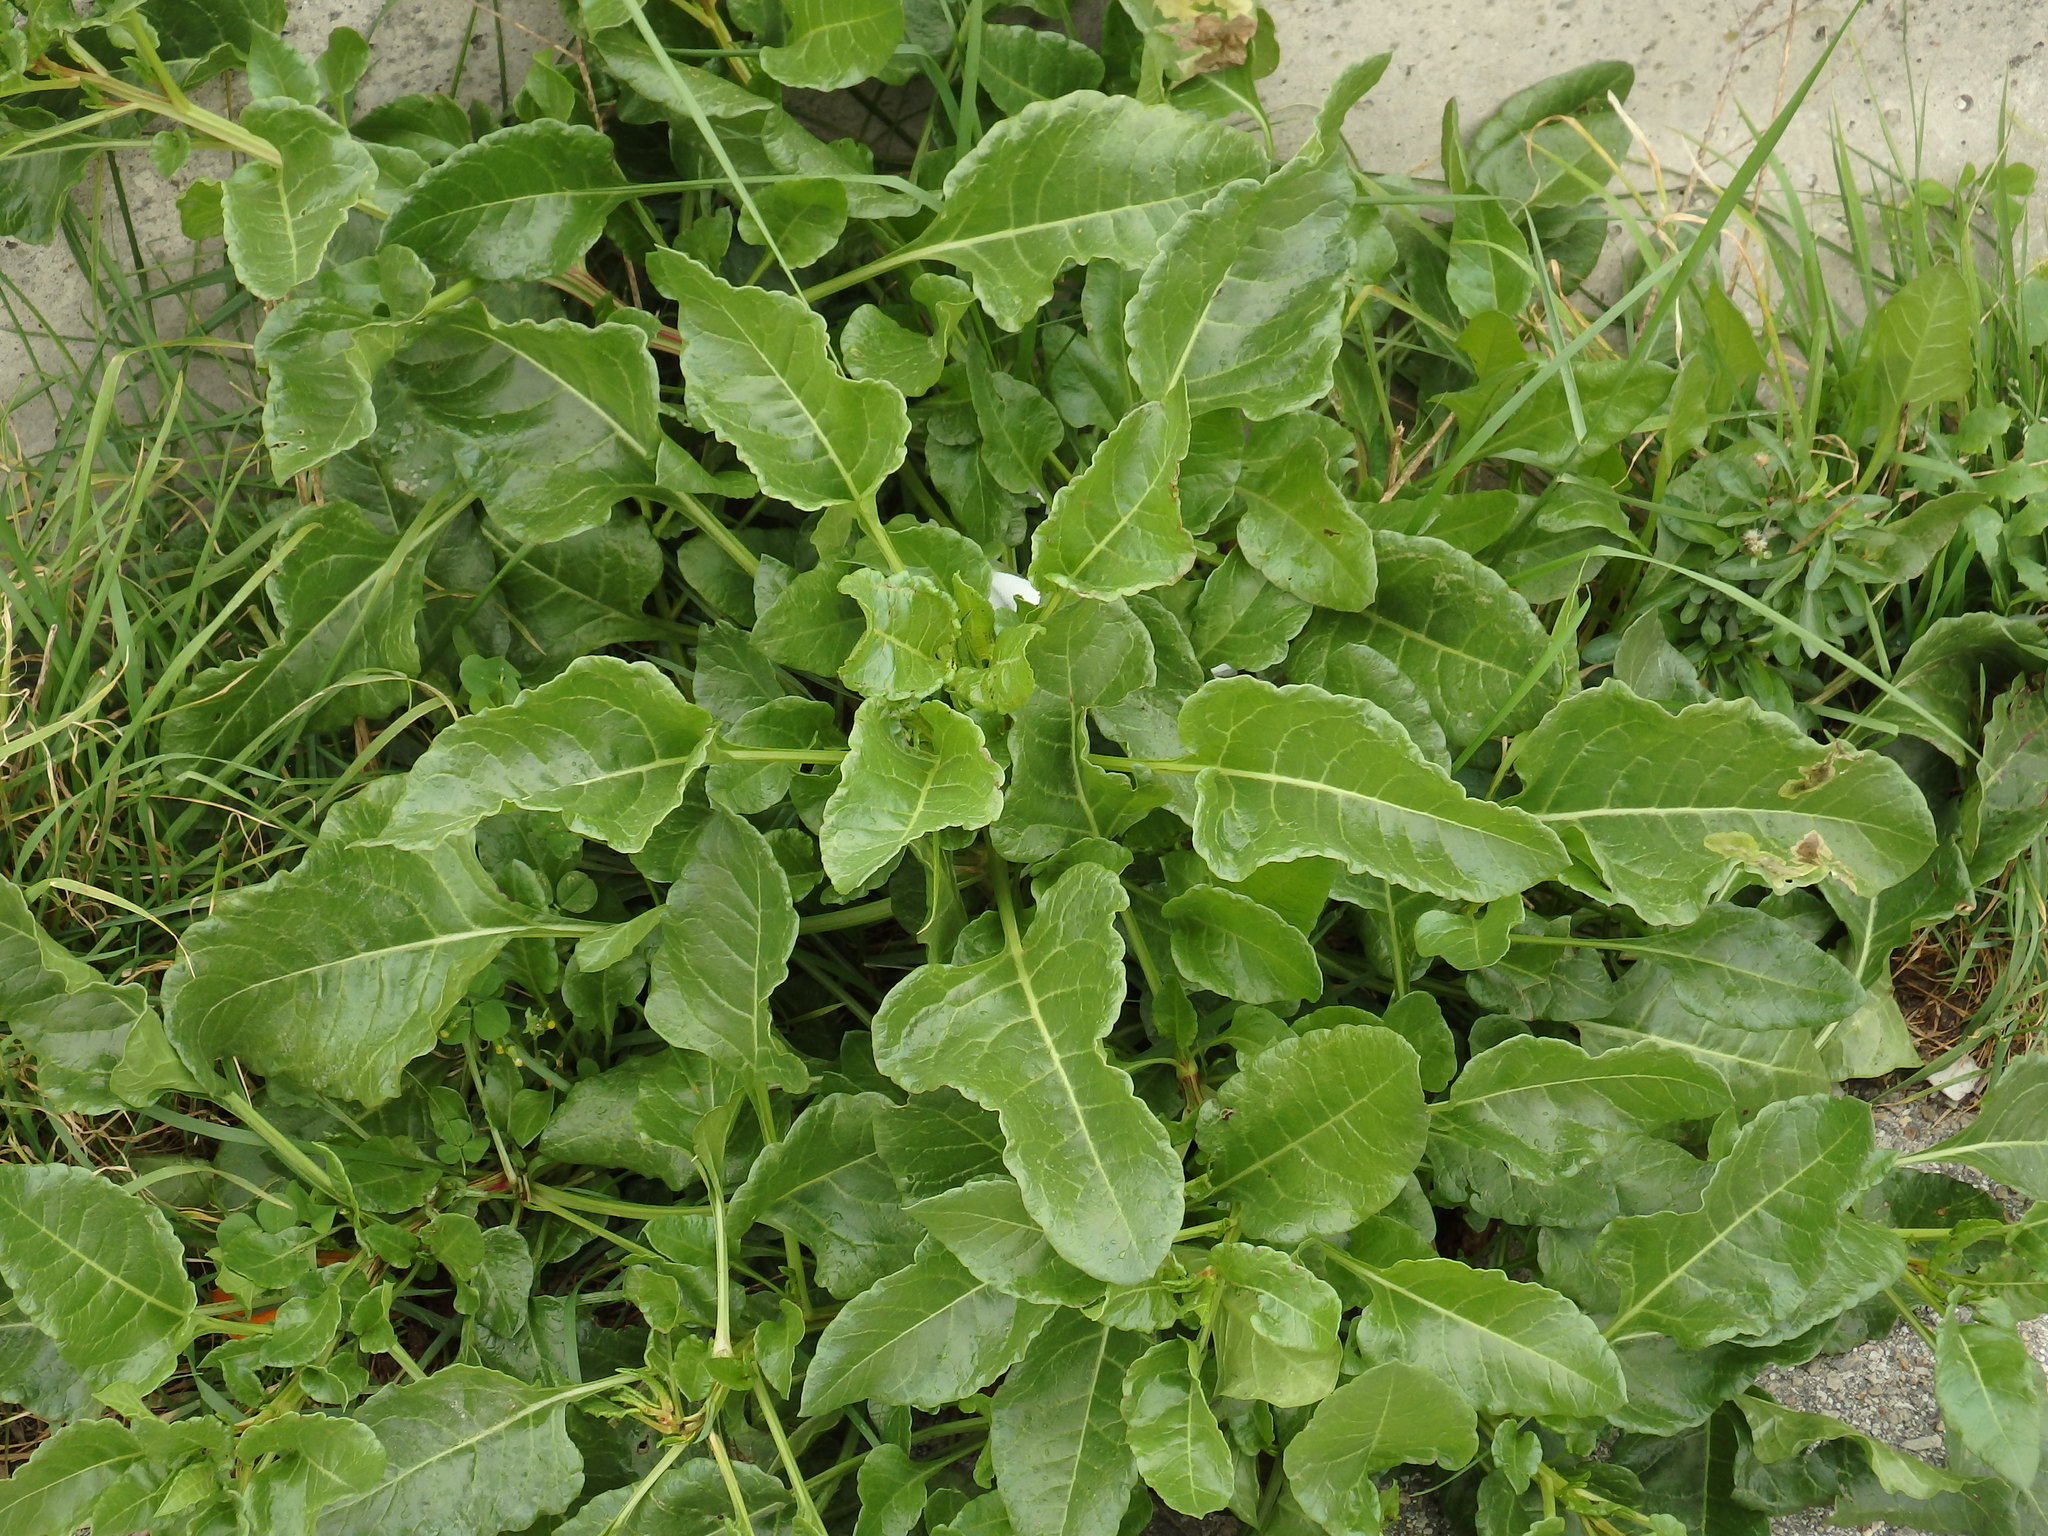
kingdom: Plantae
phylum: Tracheophyta
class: Magnoliopsida
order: Caryophyllales
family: Amaranthaceae
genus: Beta
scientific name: Beta vulgaris
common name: Beet
